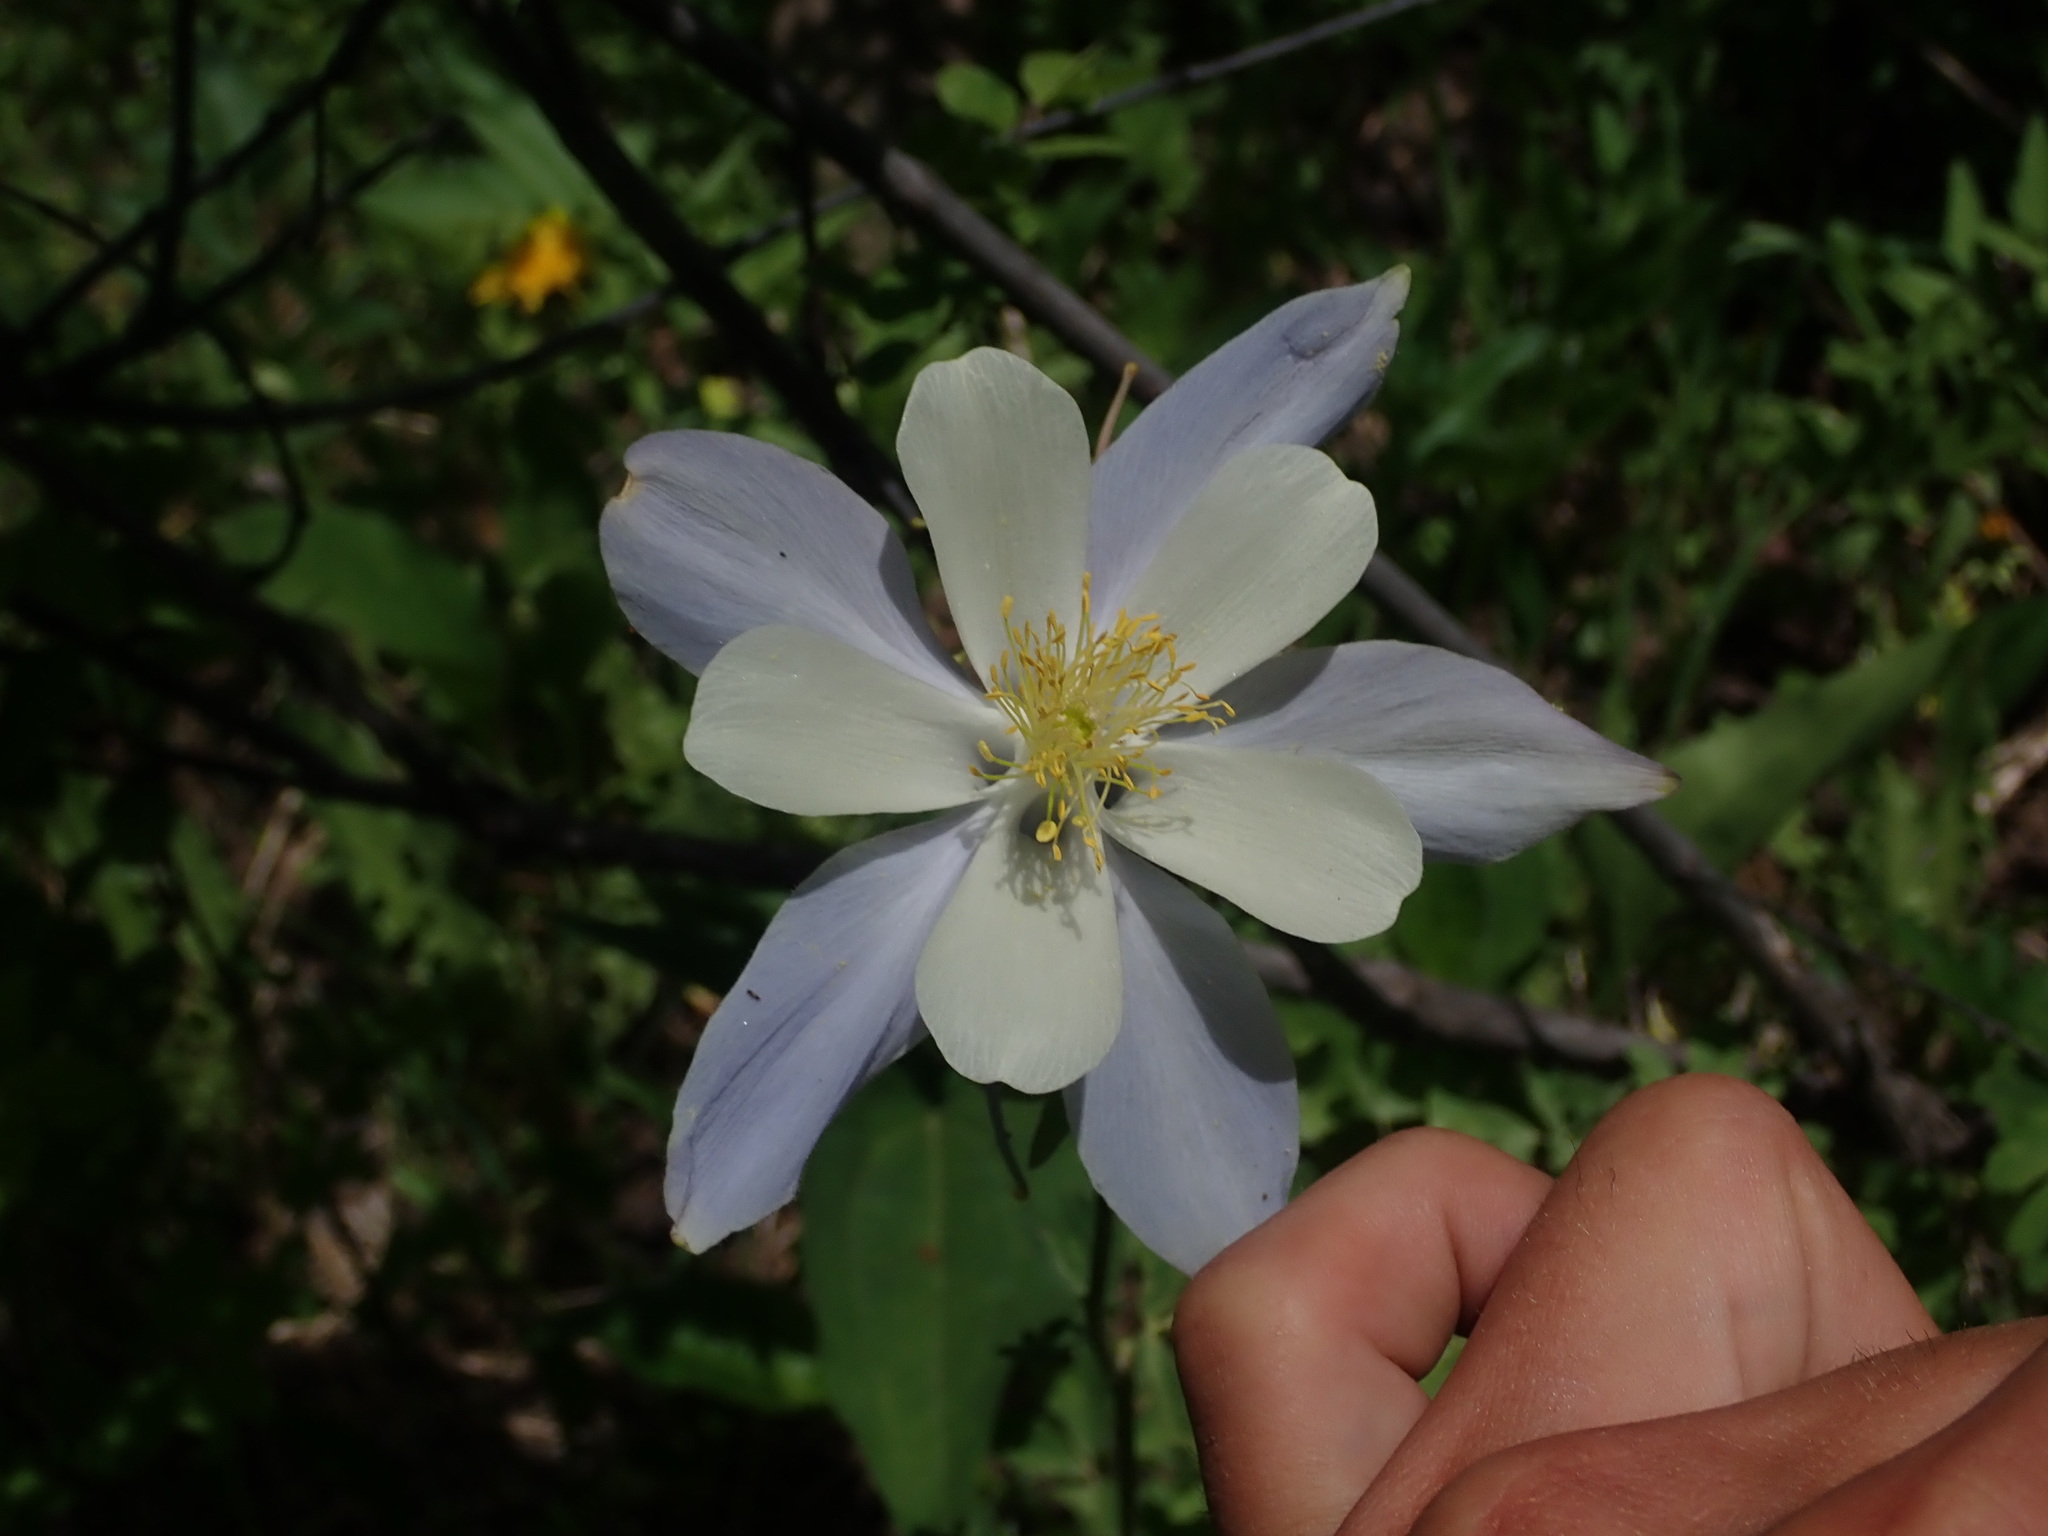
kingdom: Plantae
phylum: Tracheophyta
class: Magnoliopsida
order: Ranunculales
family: Ranunculaceae
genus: Aquilegia
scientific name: Aquilegia coerulea
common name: Rocky mountain columbine
